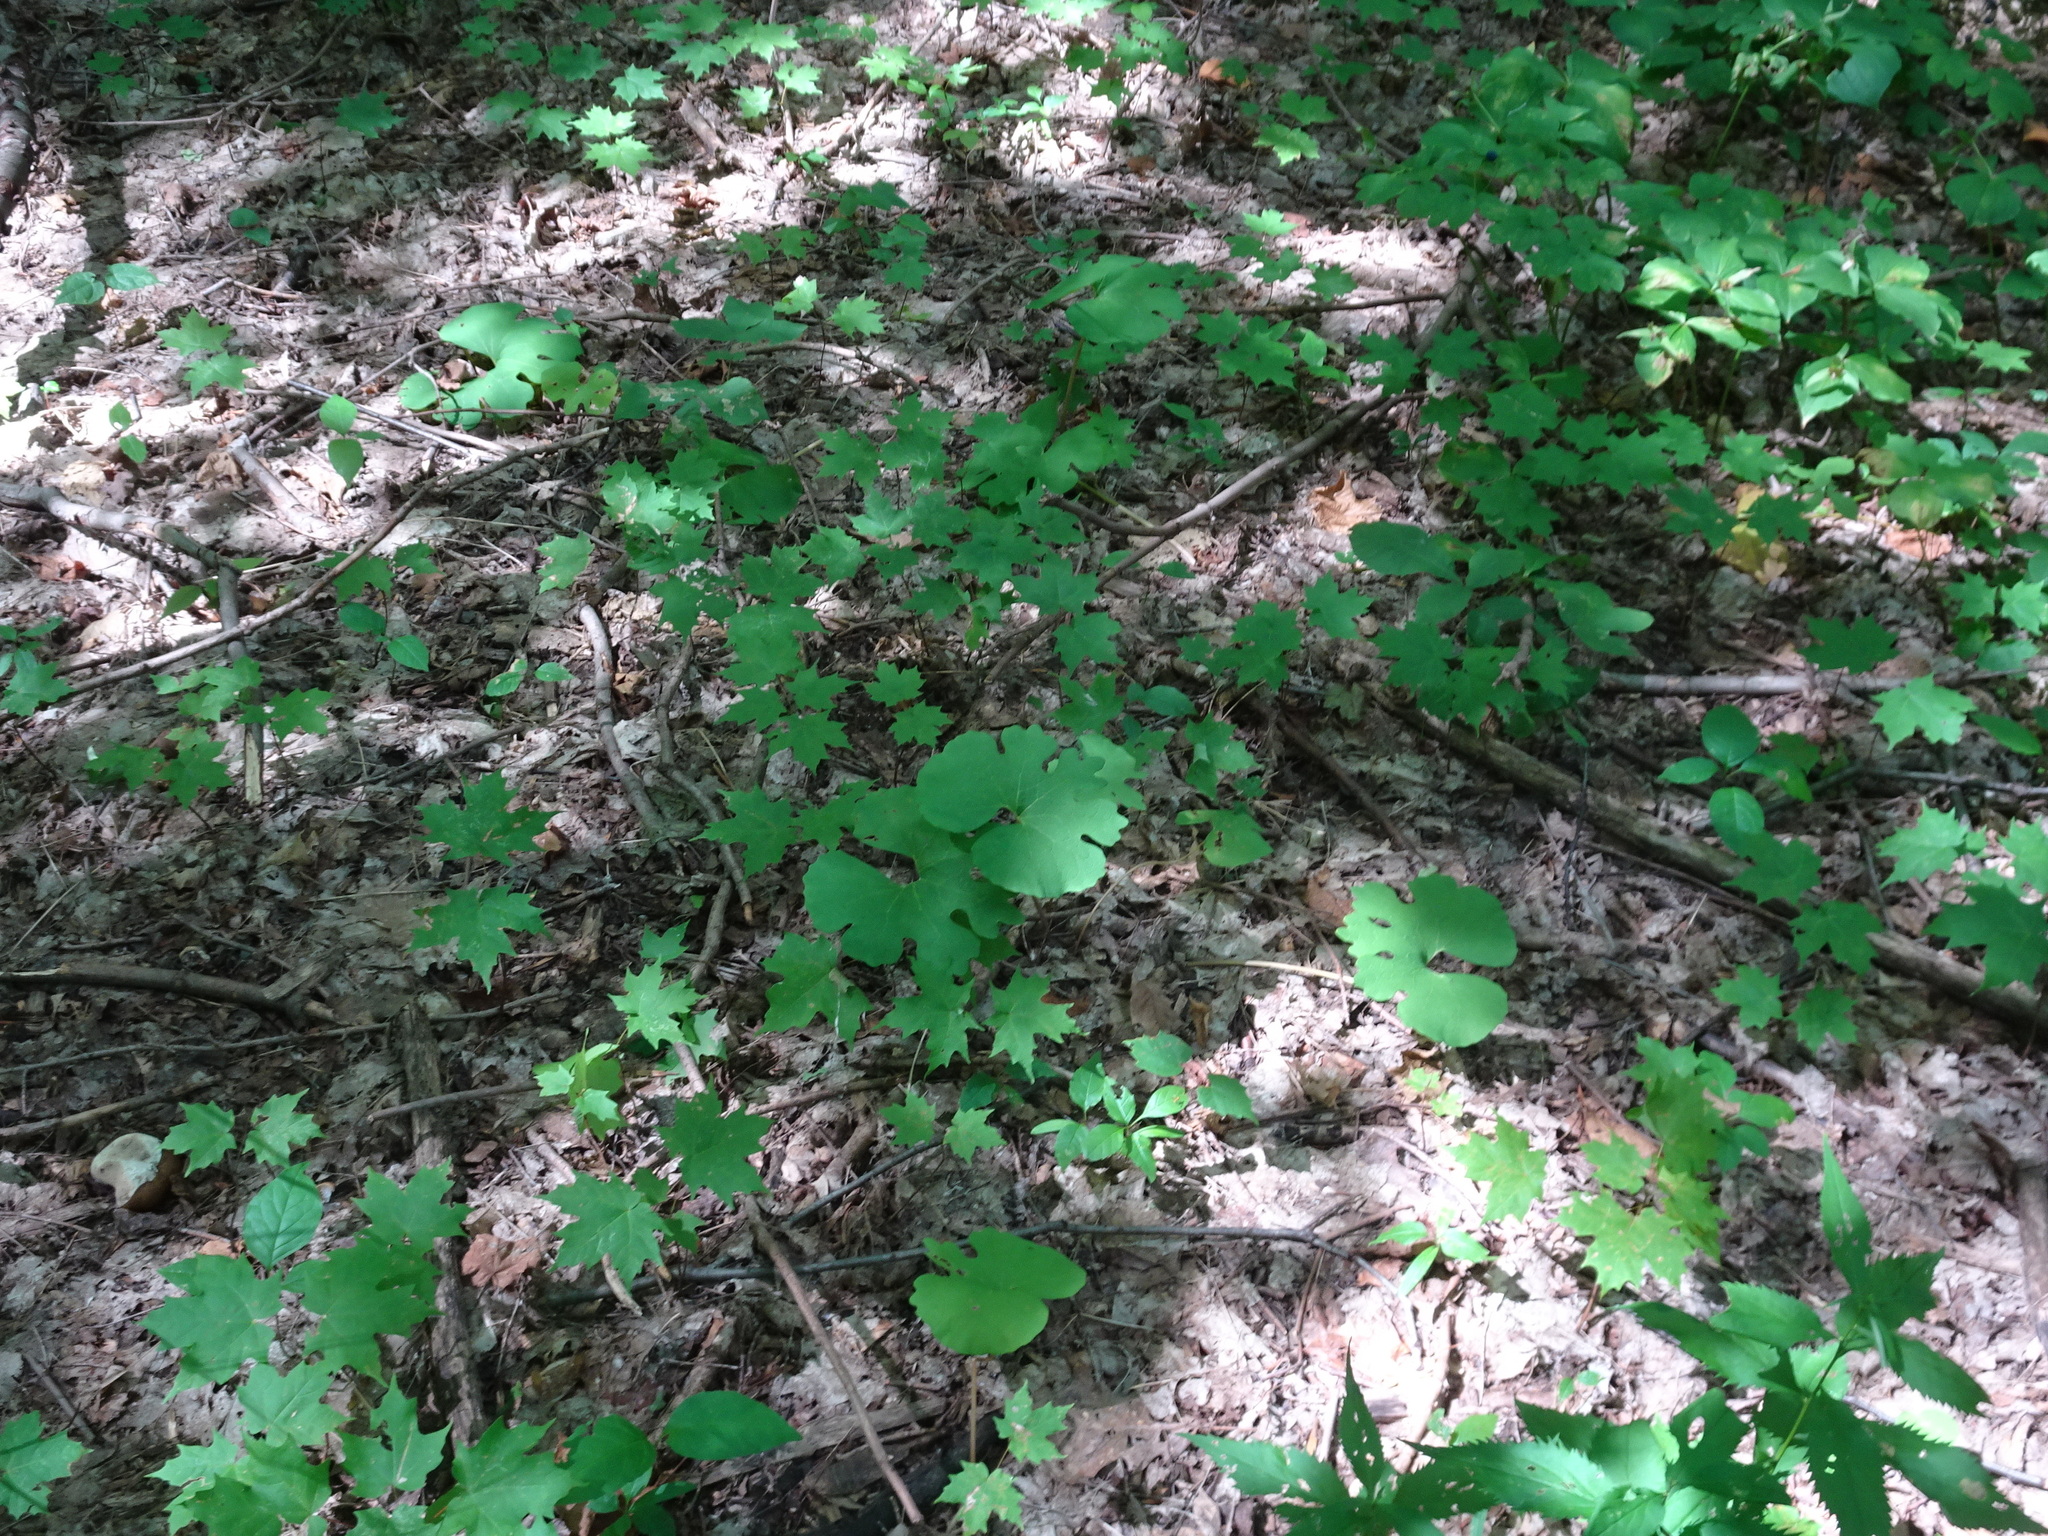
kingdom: Plantae
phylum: Tracheophyta
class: Magnoliopsida
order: Ranunculales
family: Papaveraceae
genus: Sanguinaria
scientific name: Sanguinaria canadensis
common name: Bloodroot
